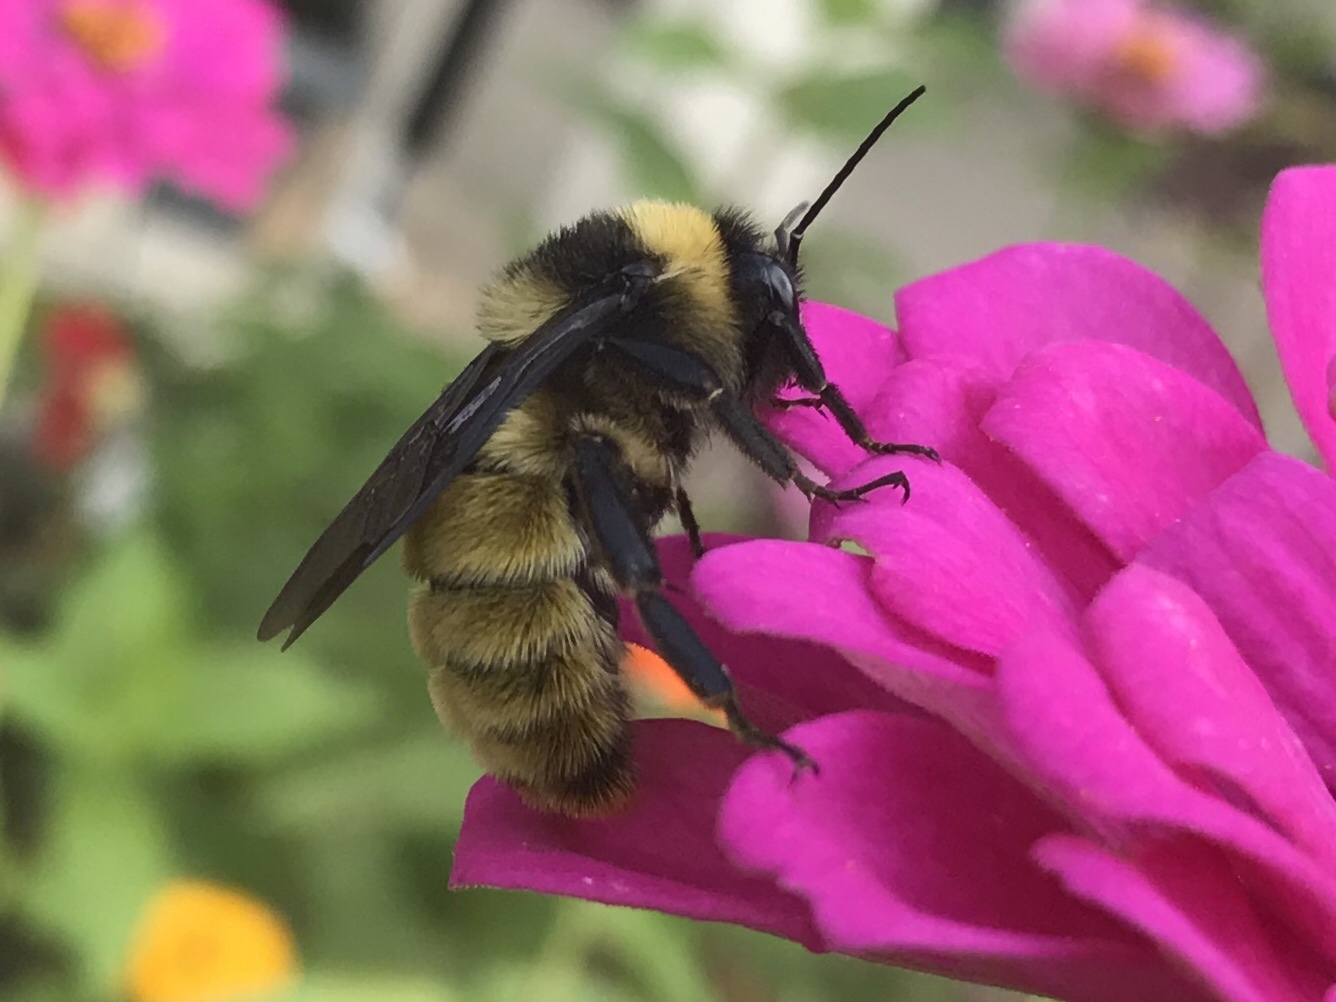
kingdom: Animalia
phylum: Arthropoda
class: Insecta
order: Hymenoptera
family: Apidae
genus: Bombus
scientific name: Bombus pensylvanicus
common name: Bumble bee
